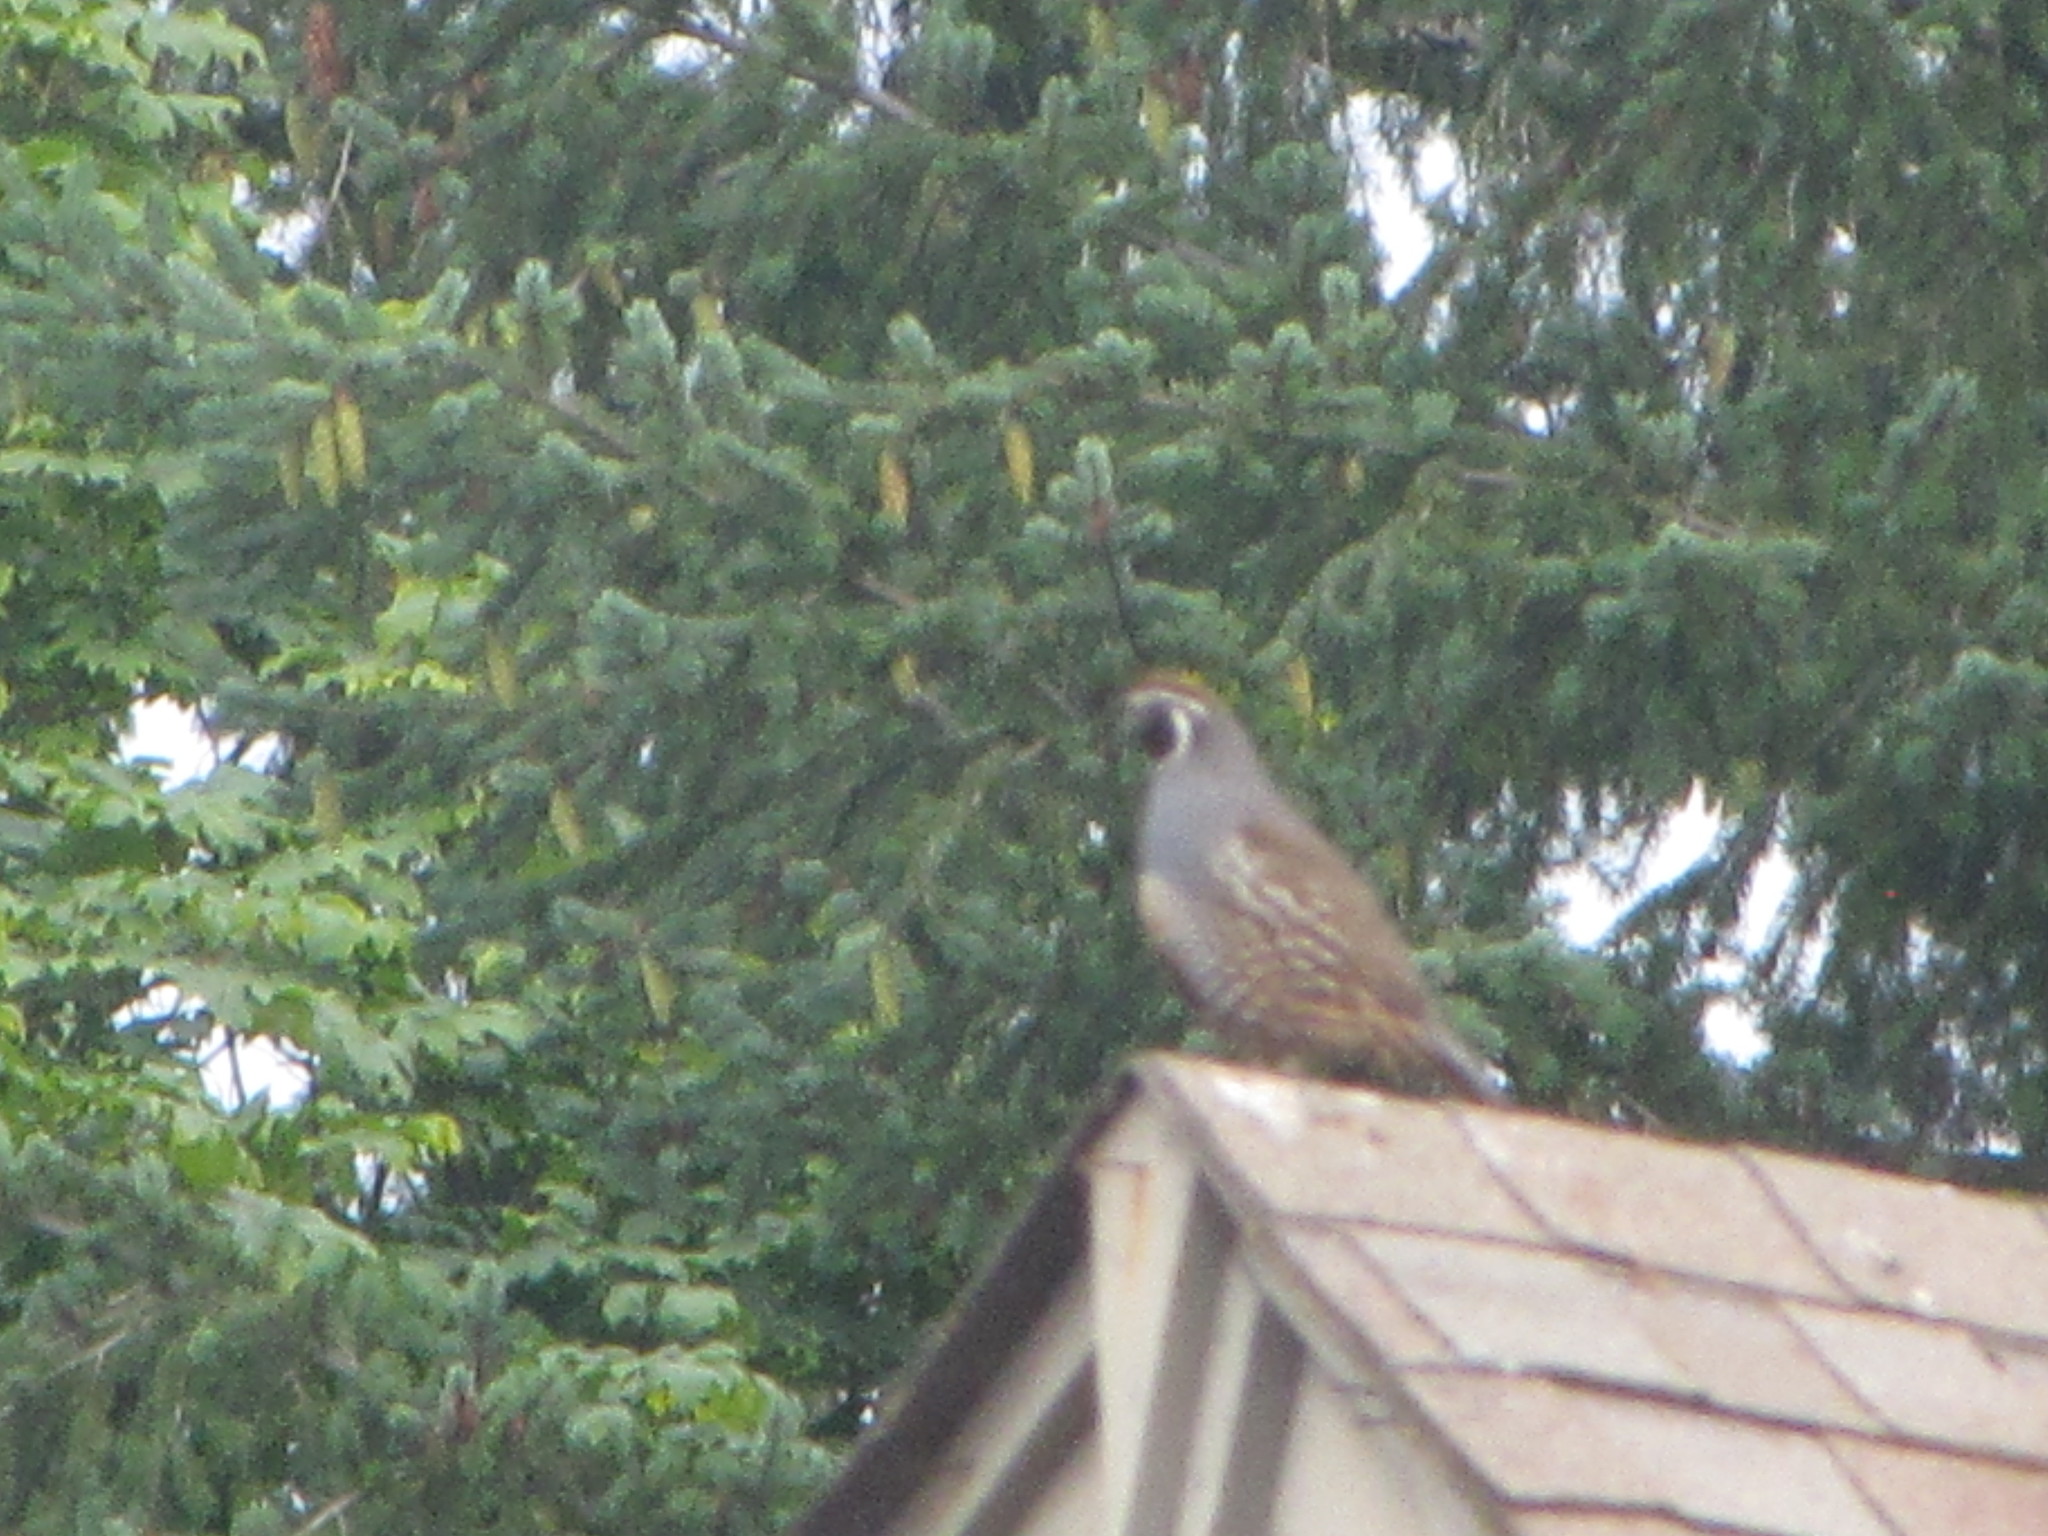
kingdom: Animalia
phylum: Chordata
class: Aves
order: Galliformes
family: Odontophoridae
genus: Callipepla
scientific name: Callipepla californica
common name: California quail
